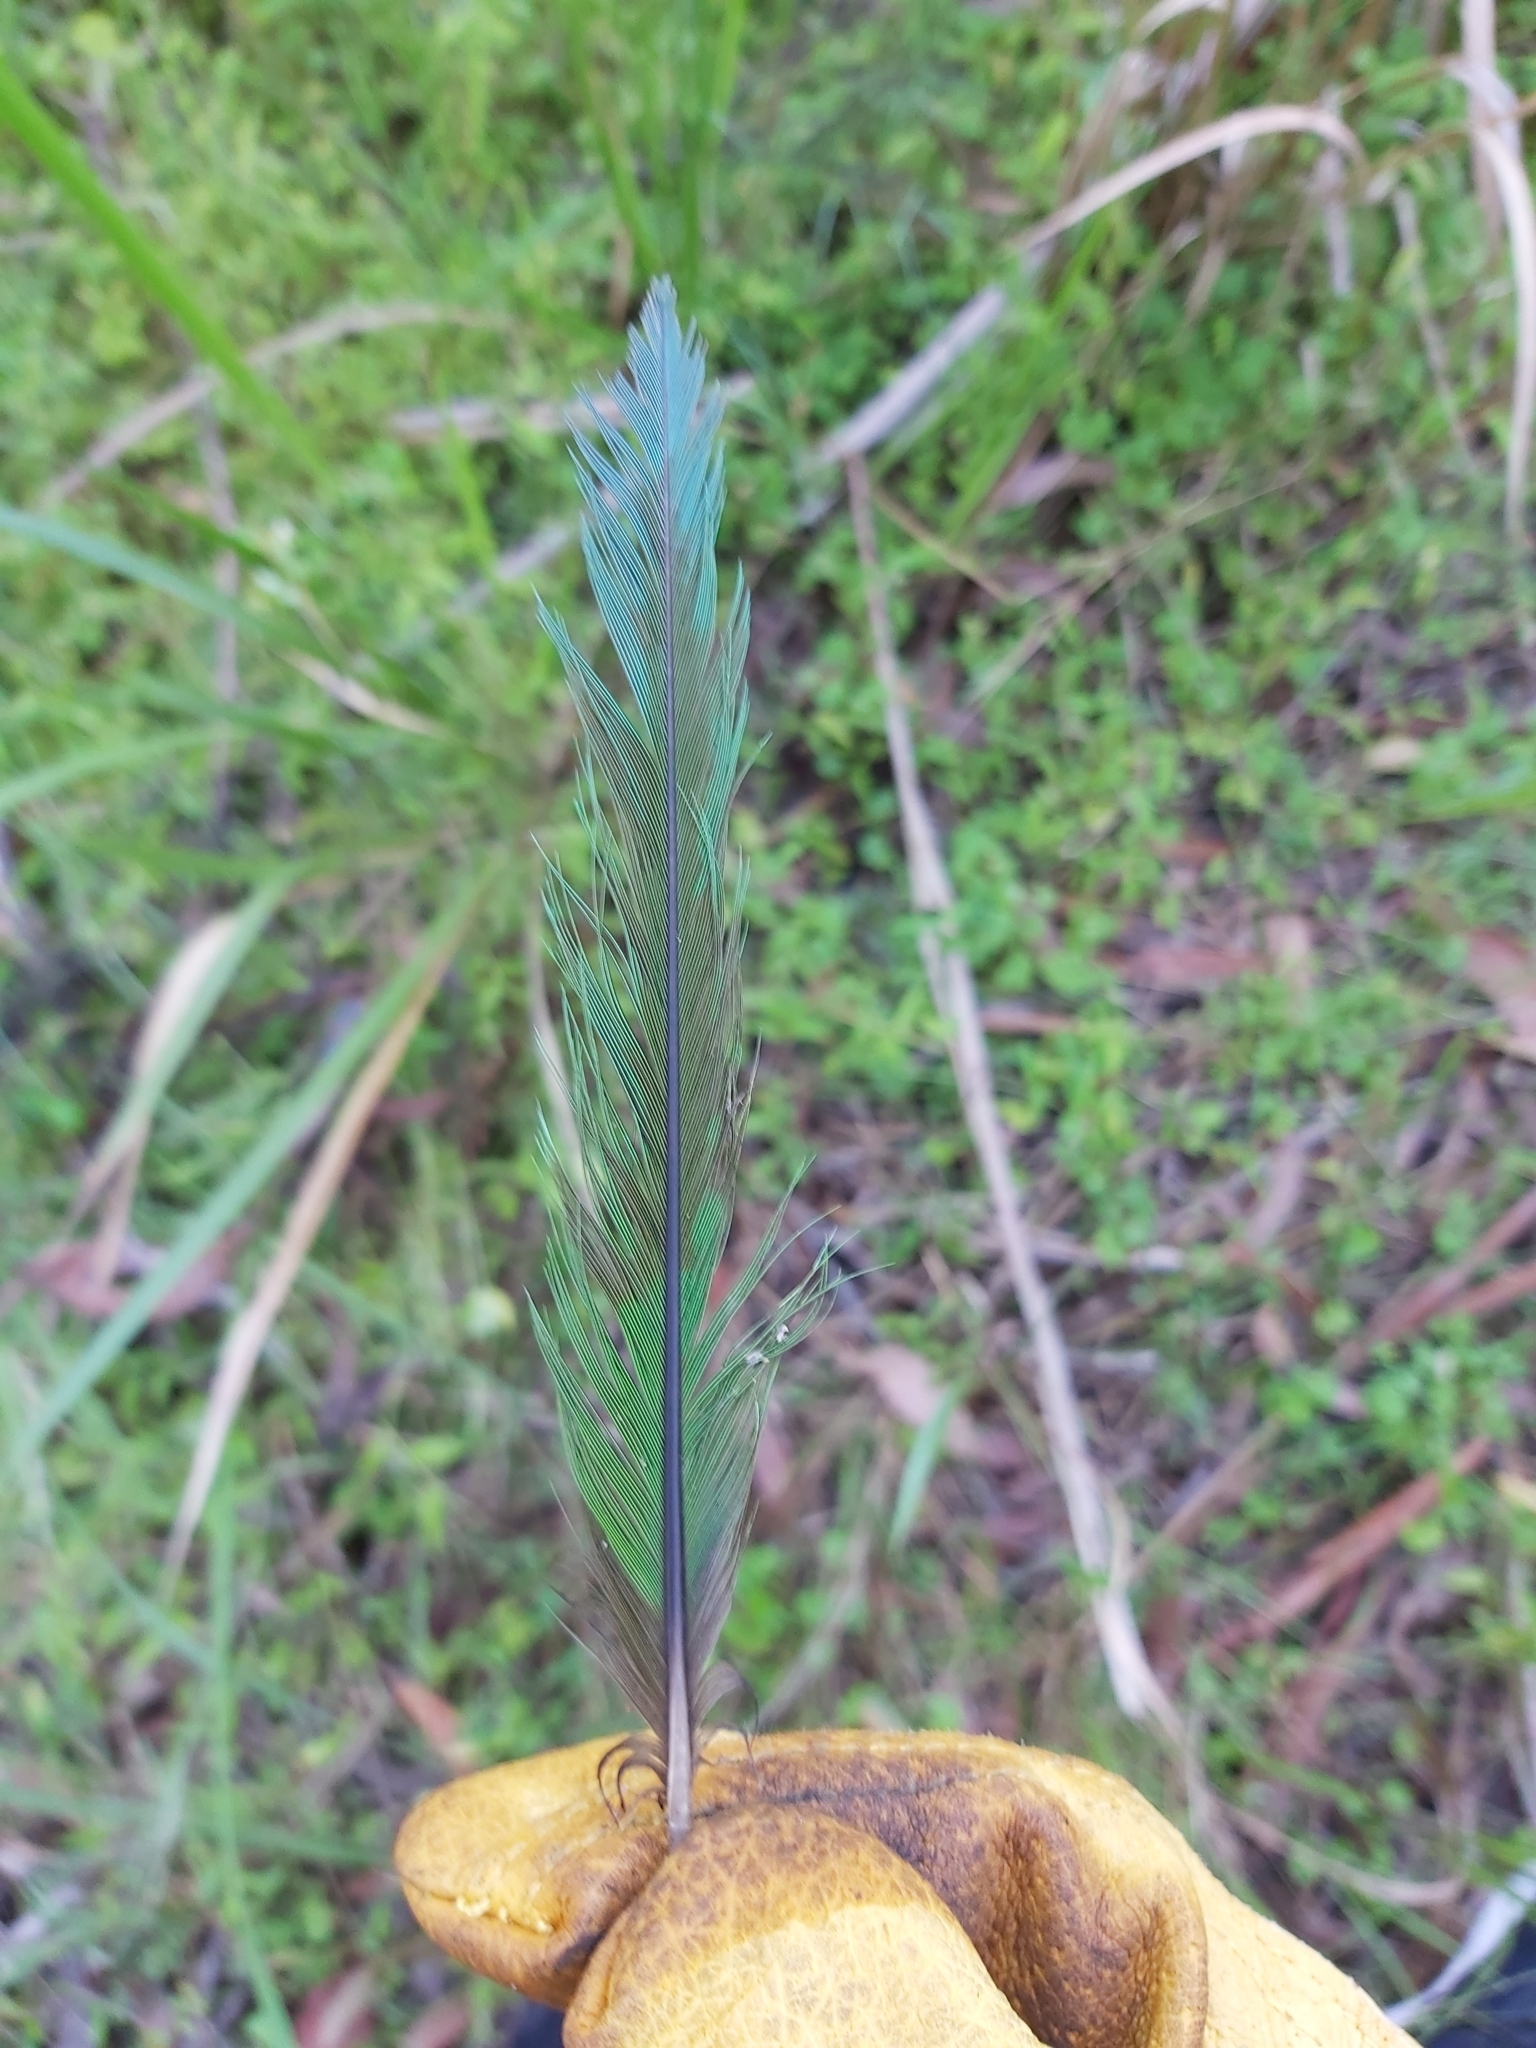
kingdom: Animalia
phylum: Chordata
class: Aves
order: Psittaciformes
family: Psittacidae
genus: Trichoglossus
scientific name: Trichoglossus haematodus
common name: Coconut lorikeet
